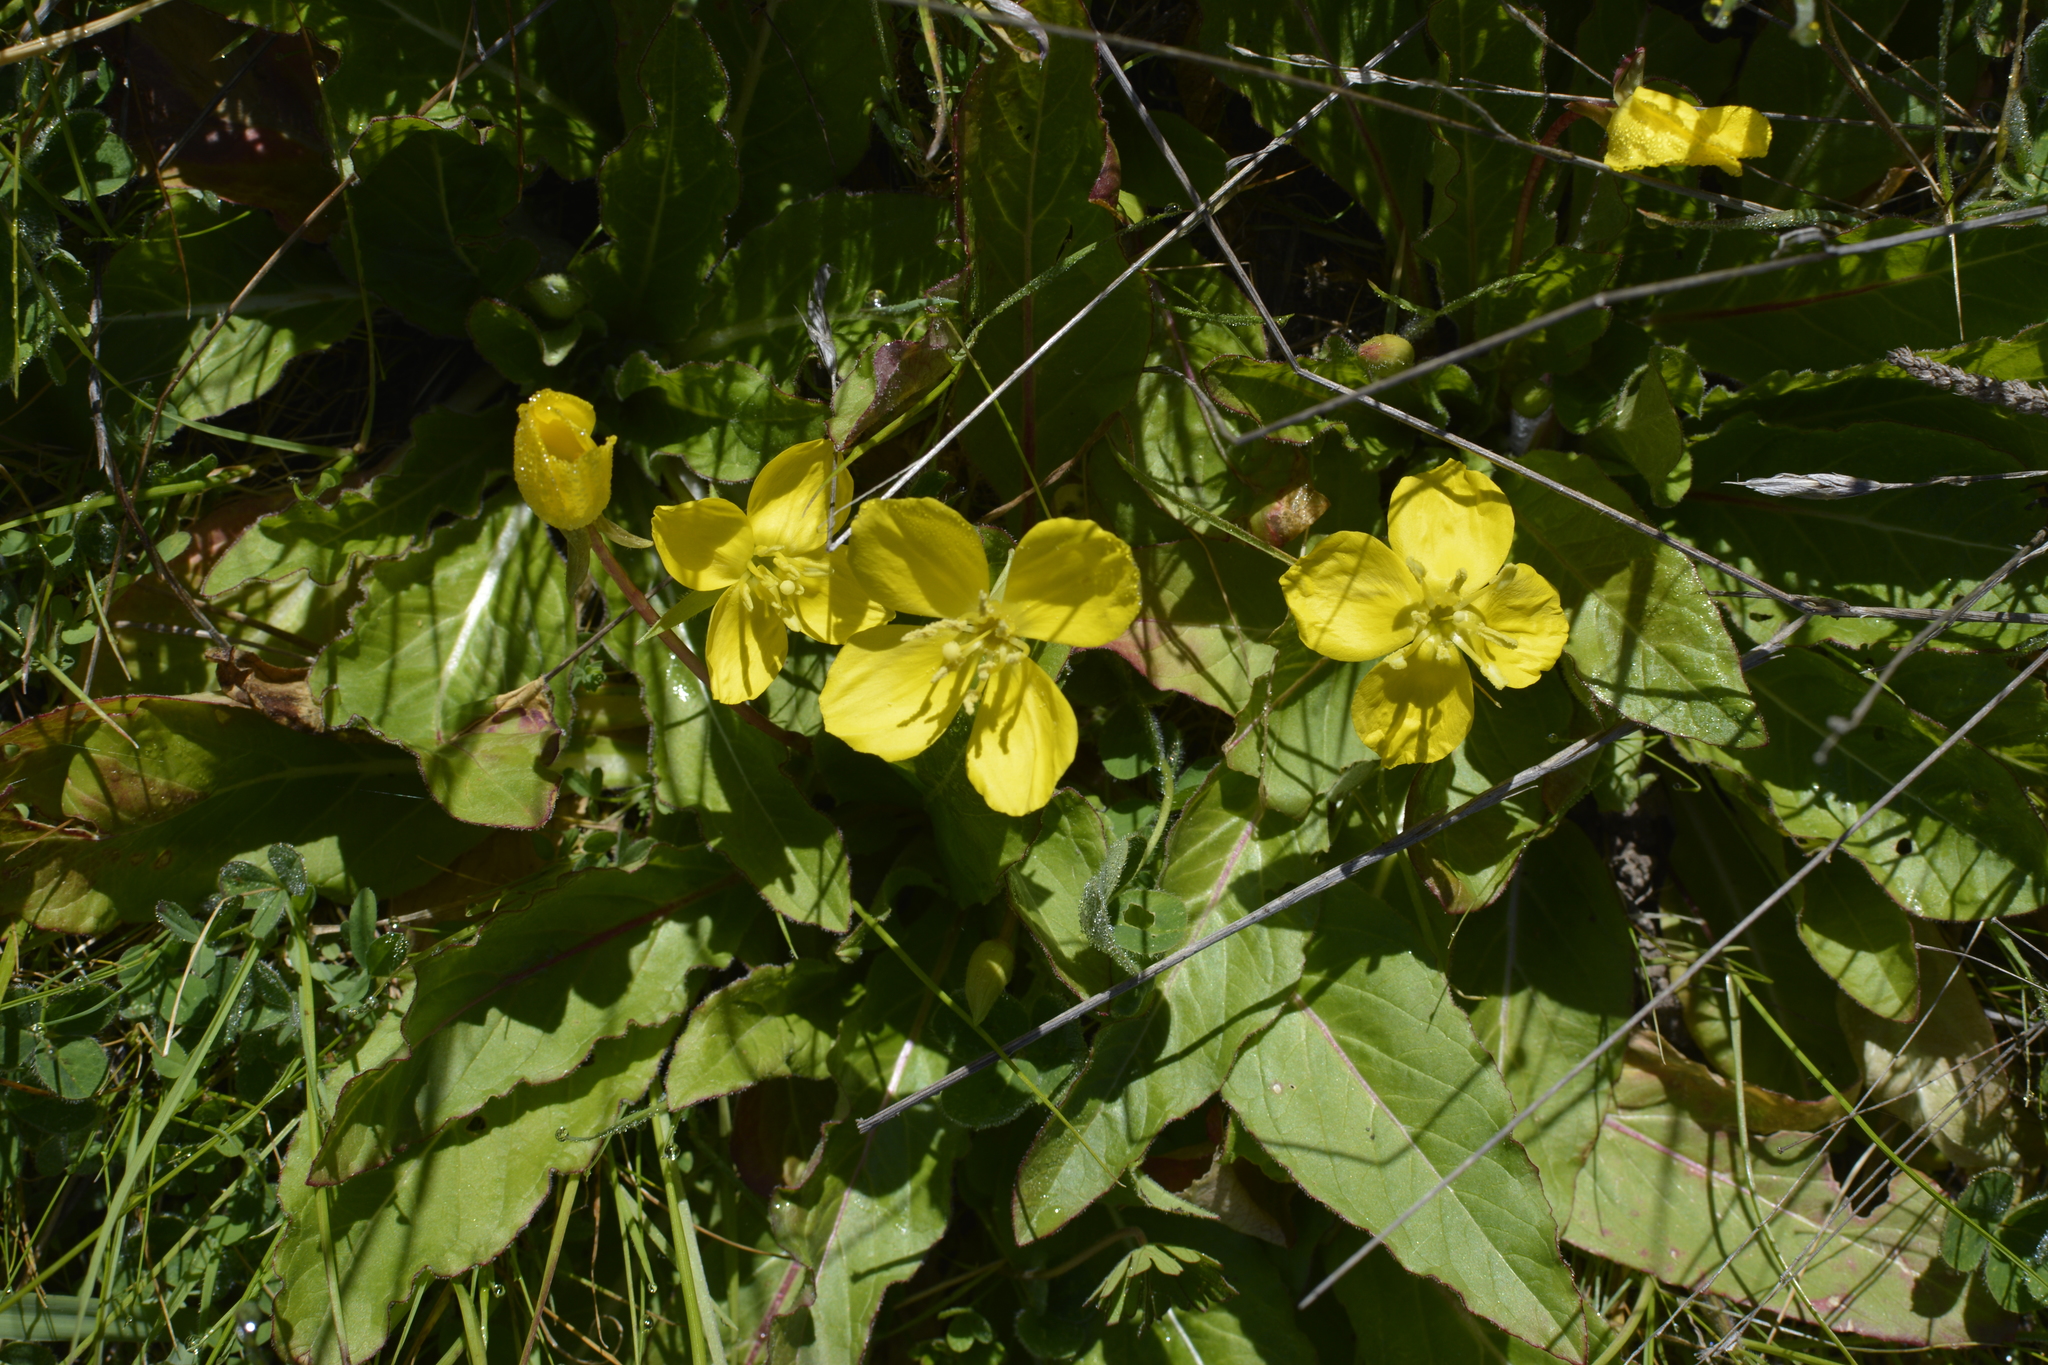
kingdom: Plantae
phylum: Tracheophyta
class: Magnoliopsida
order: Myrtales
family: Onagraceae
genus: Taraxia
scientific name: Taraxia ovata
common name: Goldeneggs
